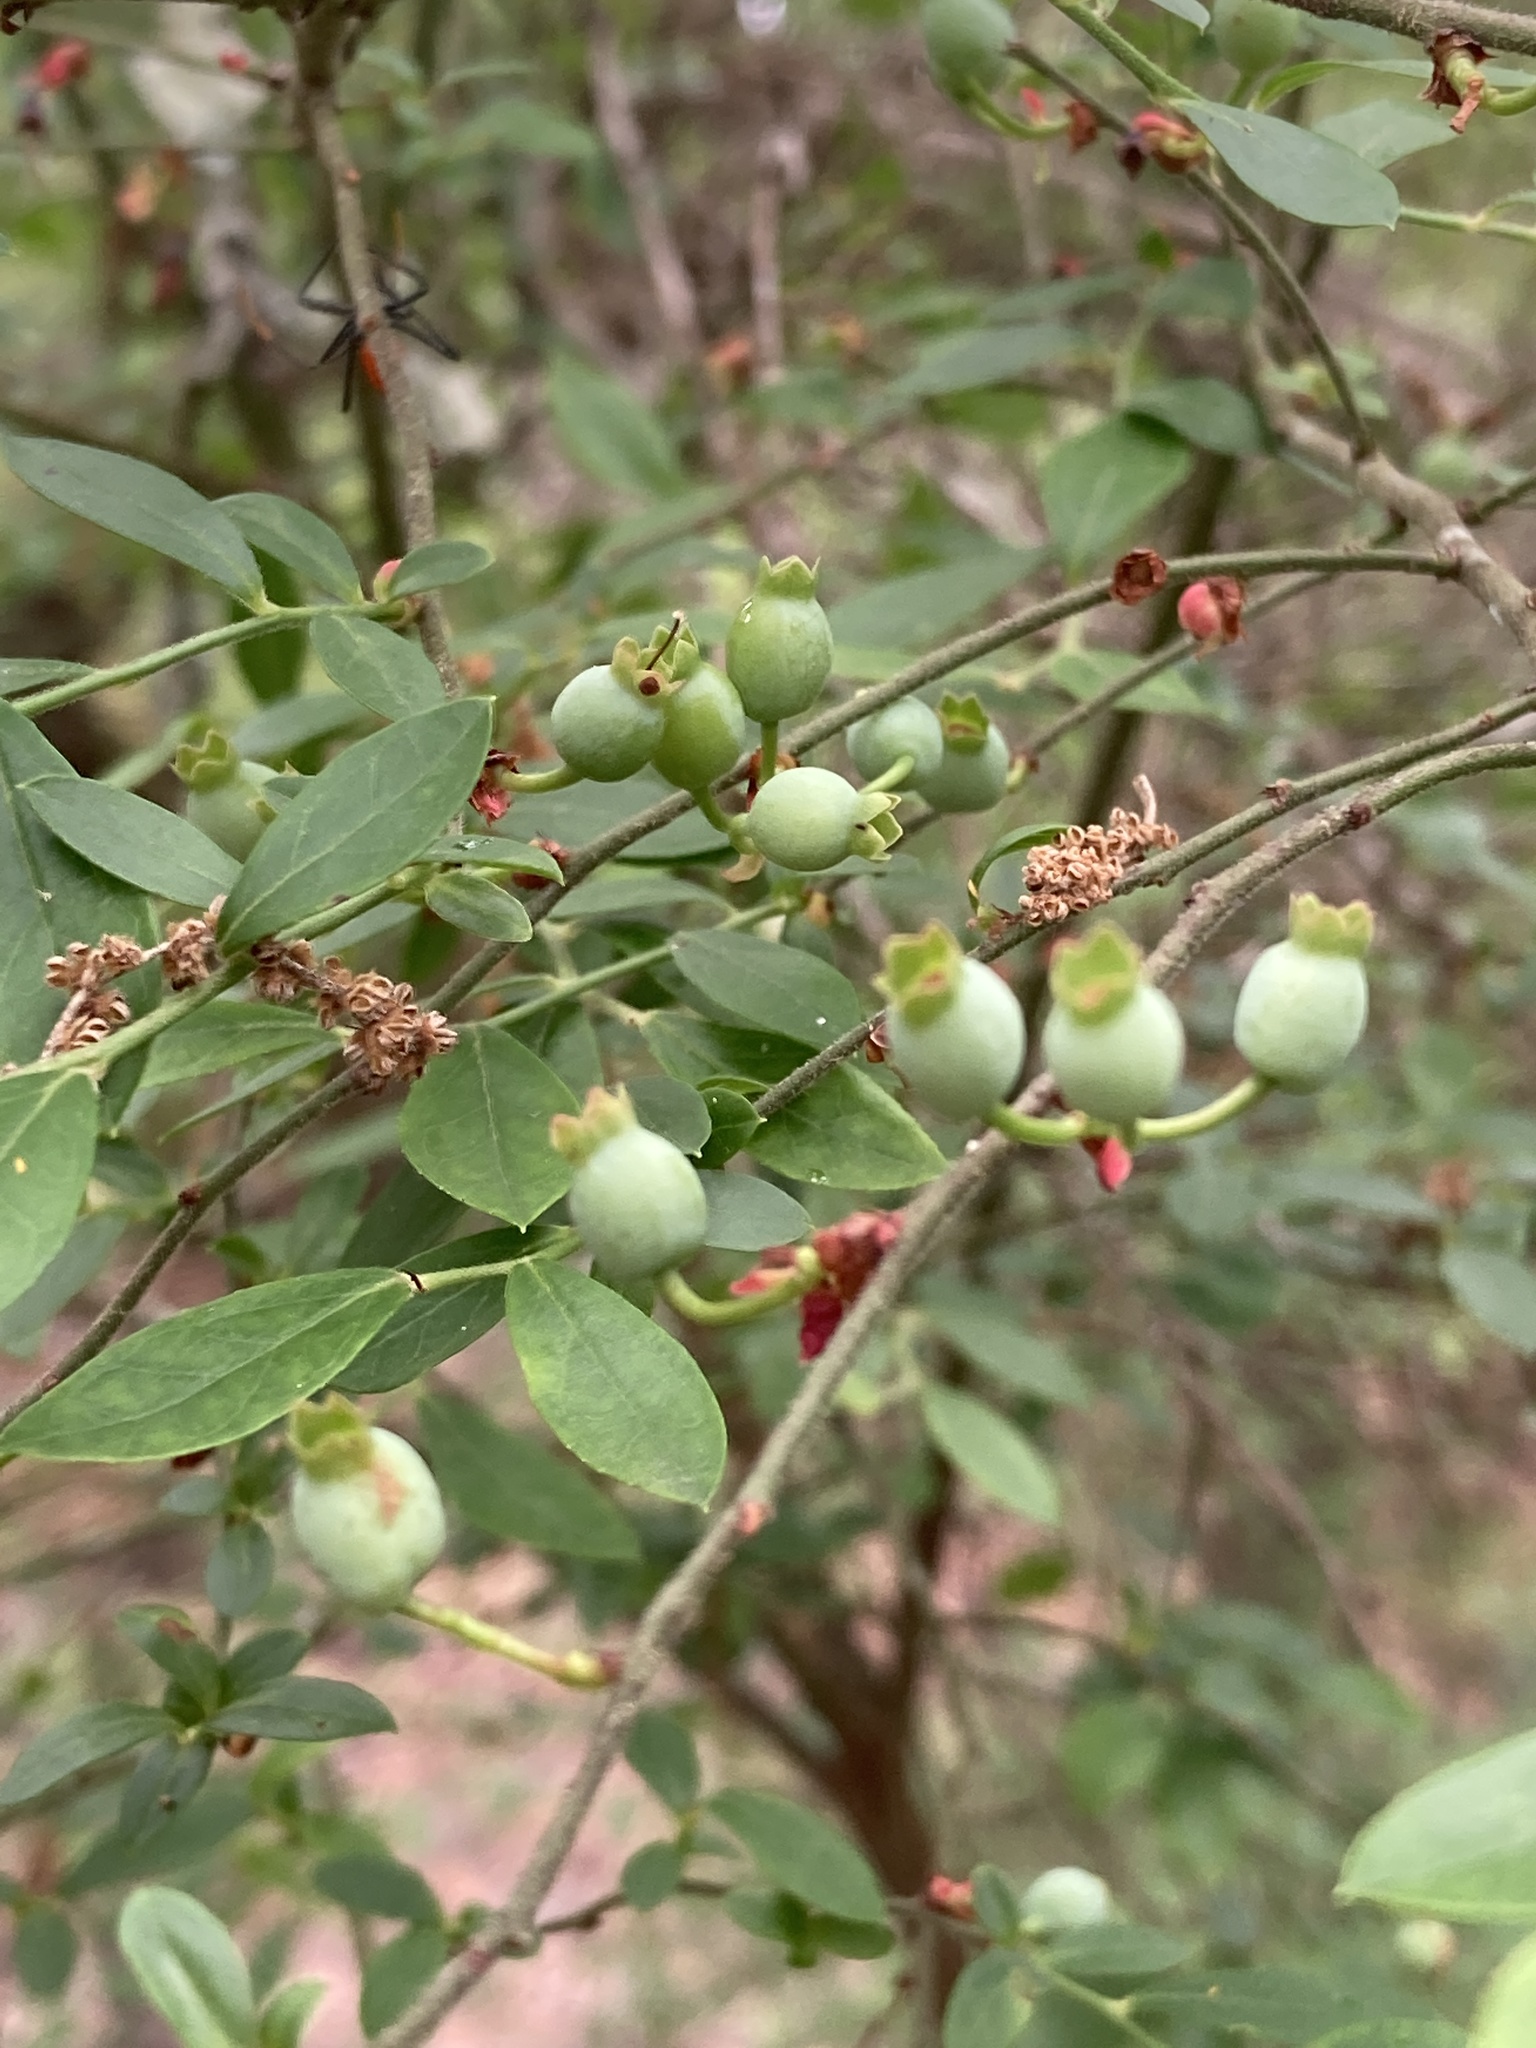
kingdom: Plantae
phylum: Tracheophyta
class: Magnoliopsida
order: Ericales
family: Ericaceae
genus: Vaccinium
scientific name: Vaccinium corymbosum
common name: Blueberry
